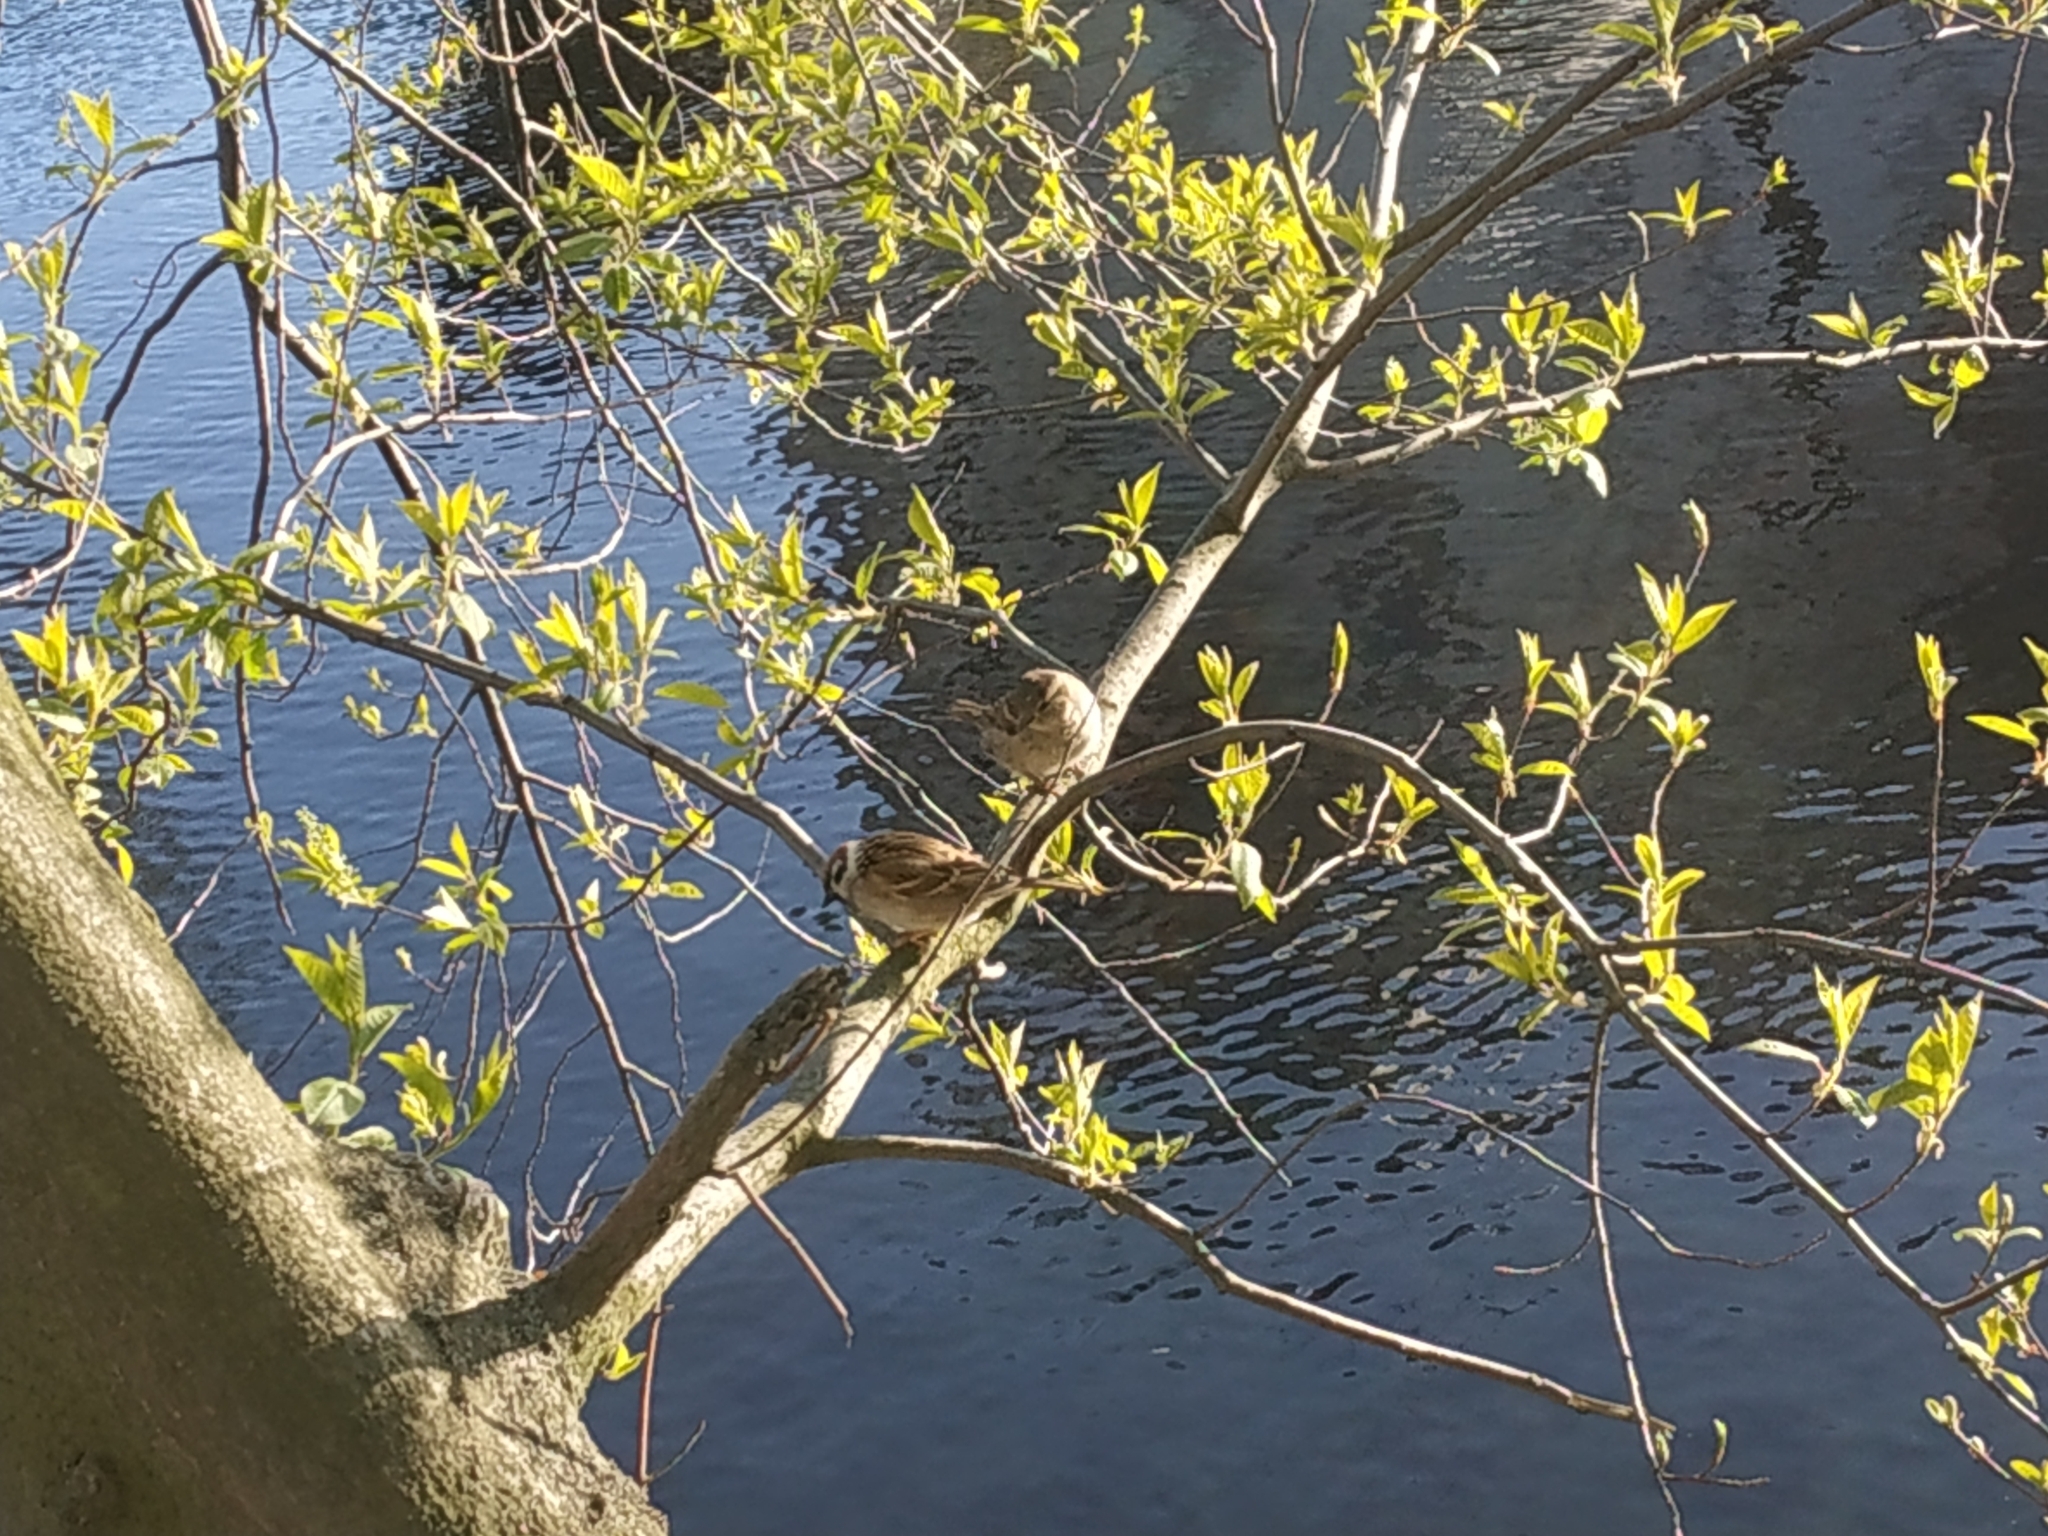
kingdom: Animalia
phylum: Chordata
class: Aves
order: Passeriformes
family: Passeridae
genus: Passer
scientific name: Passer montanus
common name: Eurasian tree sparrow
